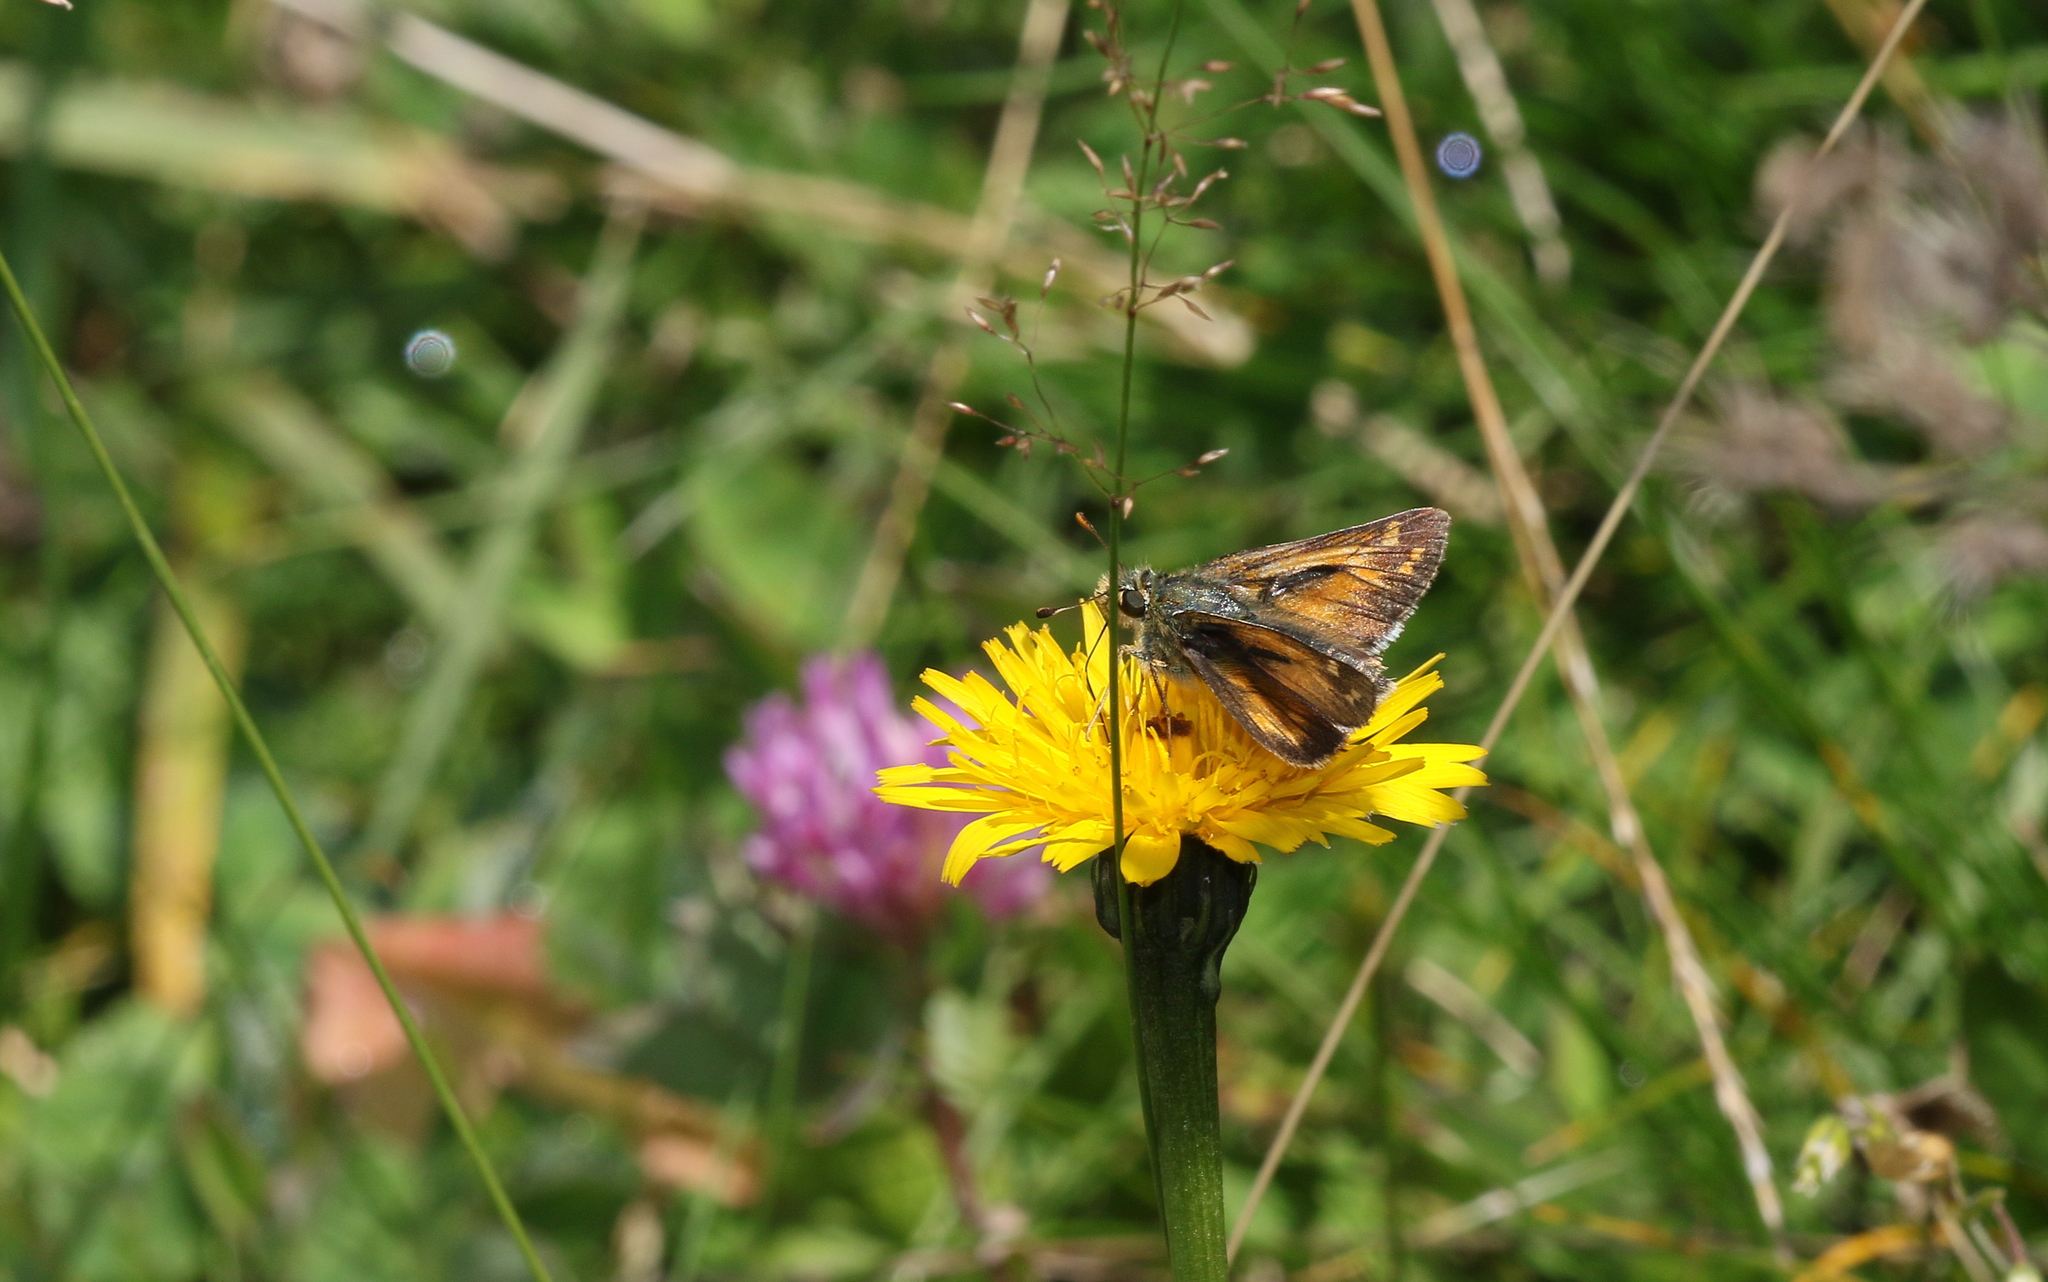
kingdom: Animalia
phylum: Arthropoda
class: Insecta
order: Lepidoptera
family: Hesperiidae
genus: Hesperia
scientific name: Hesperia comma
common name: Common branded skipper
